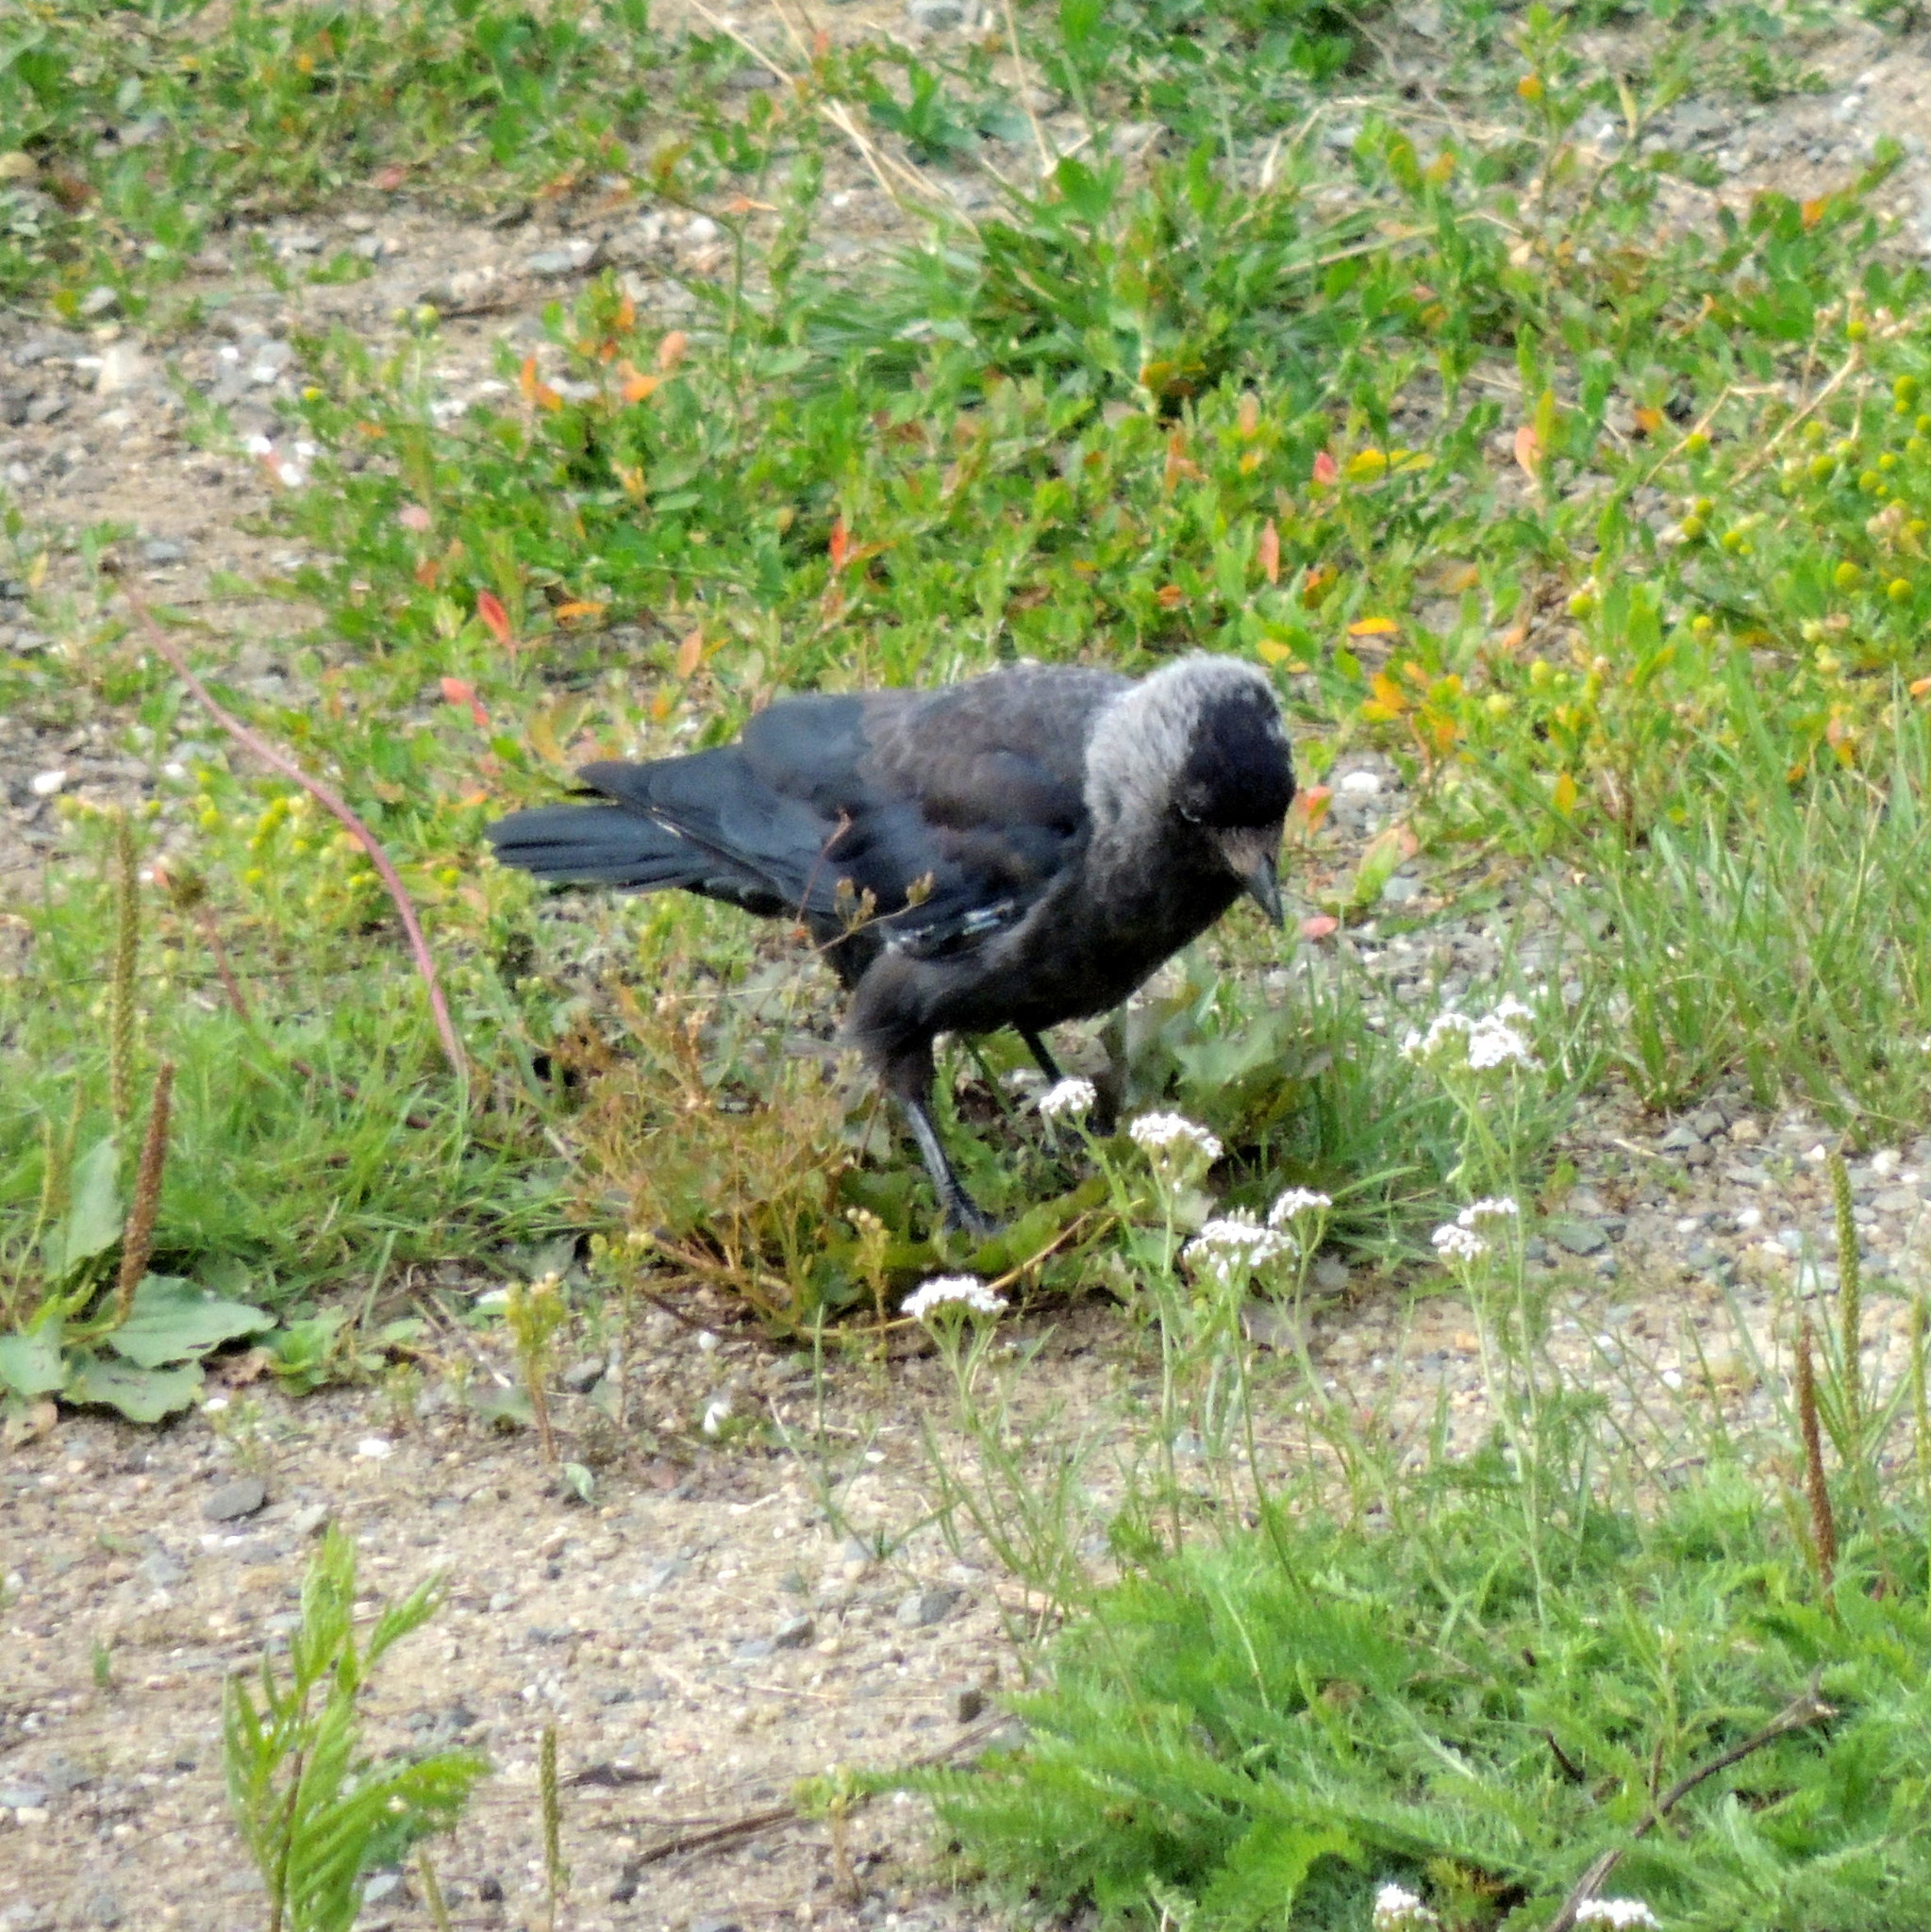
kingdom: Animalia
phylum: Chordata
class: Aves
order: Passeriformes
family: Corvidae
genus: Coloeus
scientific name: Coloeus monedula
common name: Western jackdaw
